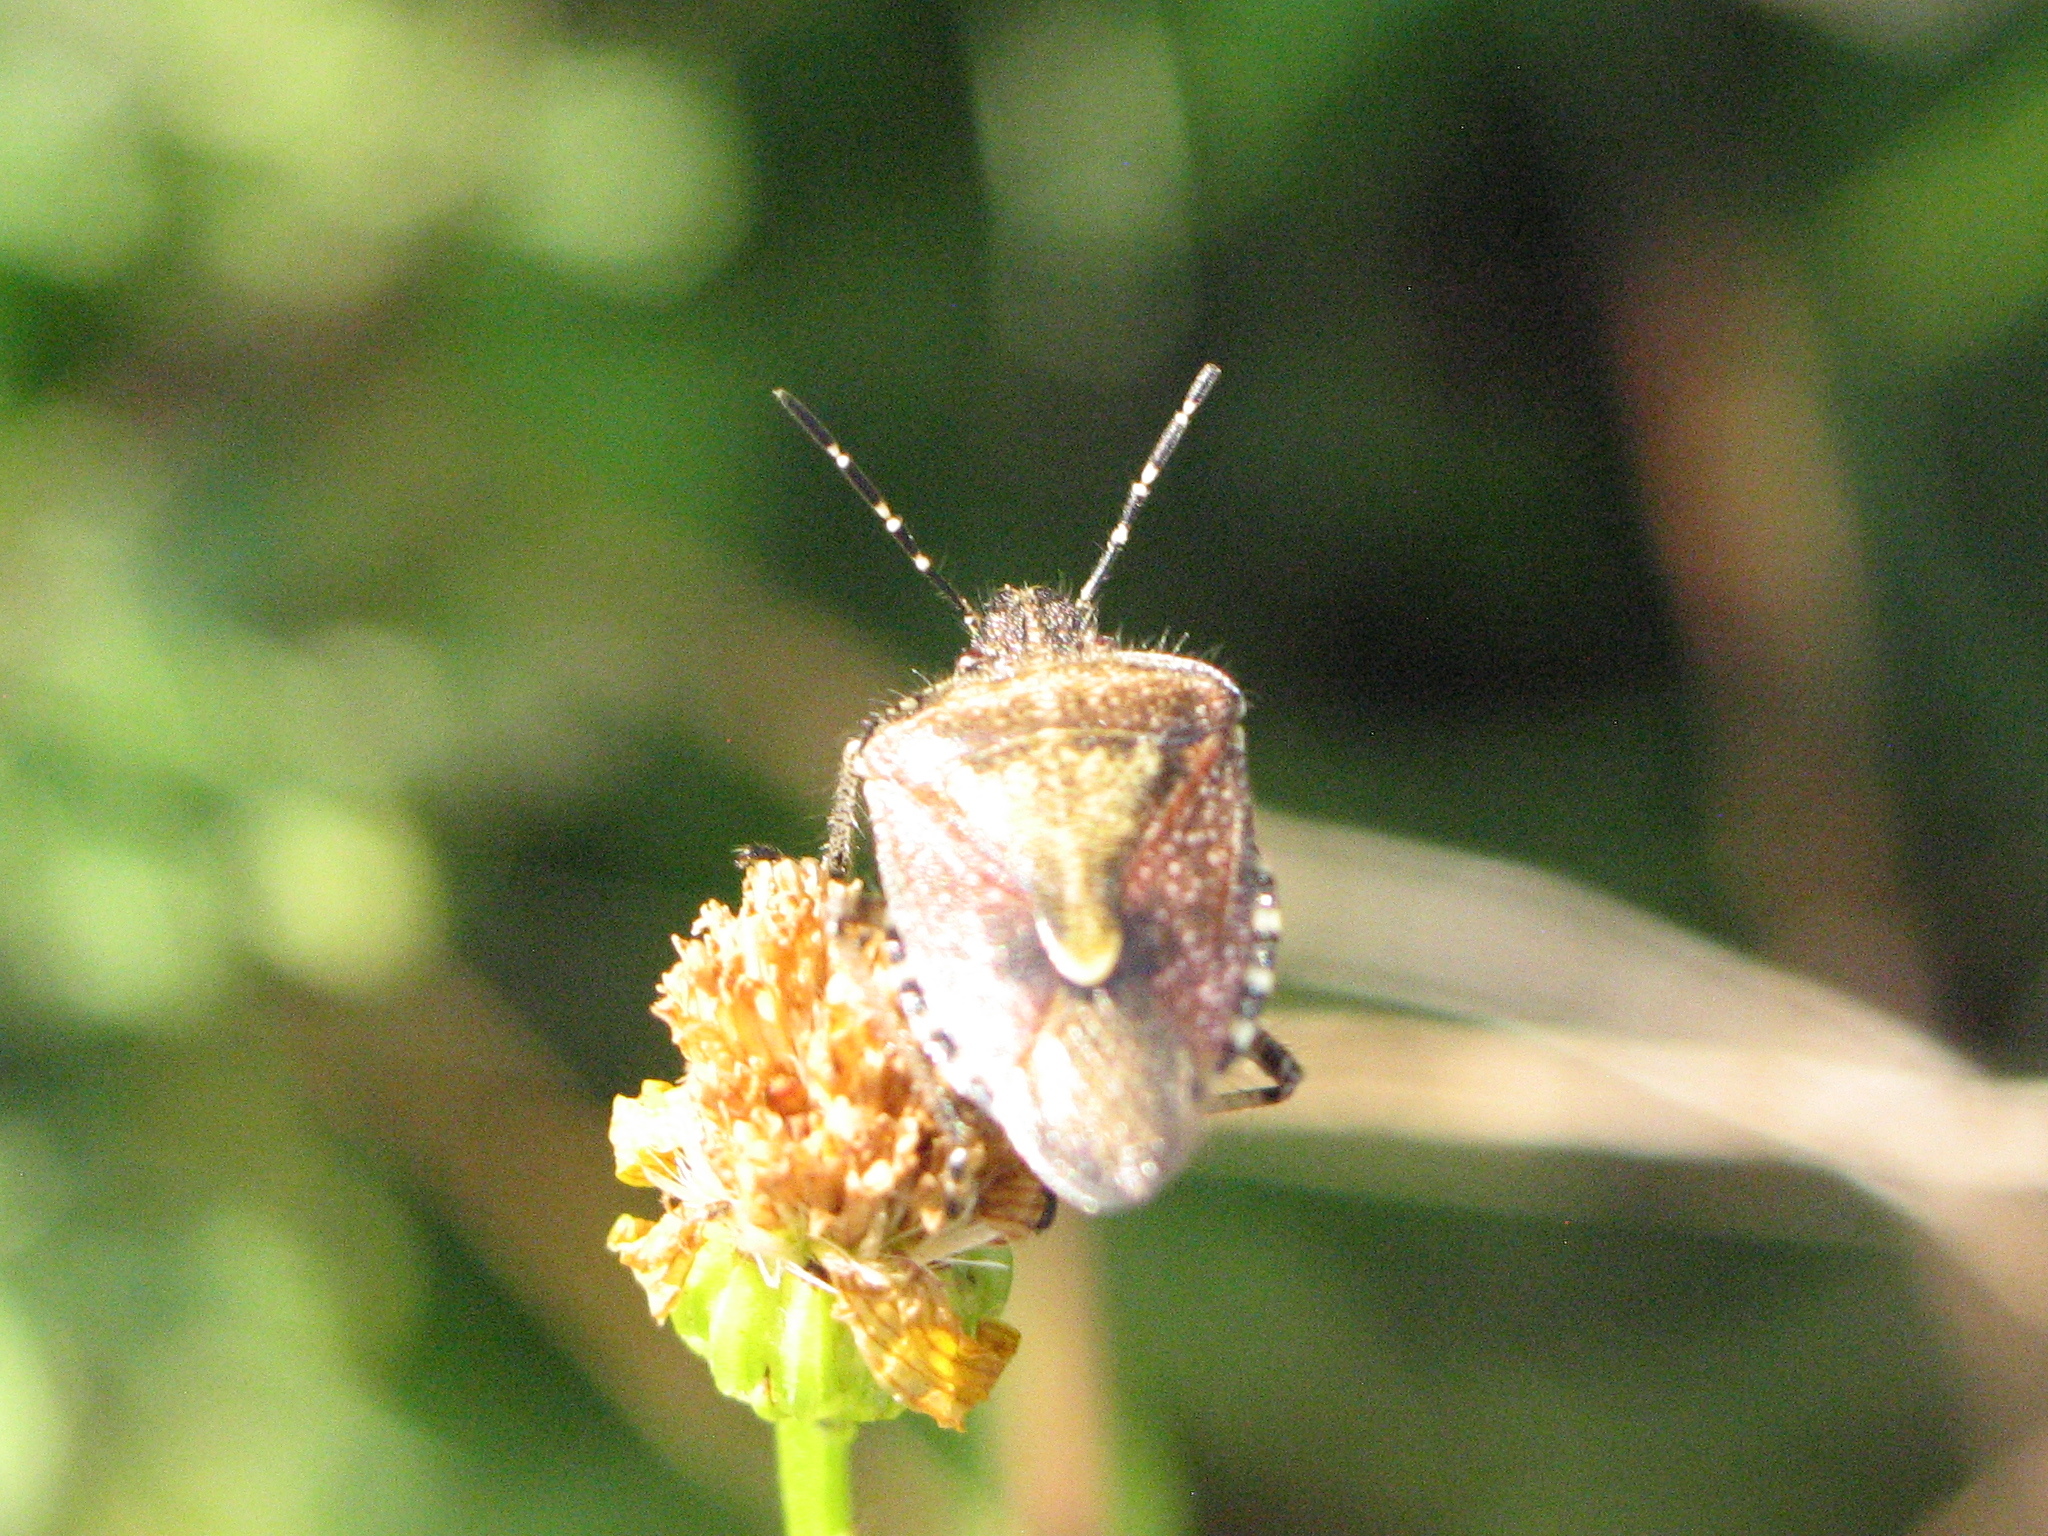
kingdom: Animalia
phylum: Arthropoda
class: Insecta
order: Hemiptera
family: Pentatomidae
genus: Dolycoris
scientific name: Dolycoris baccarum
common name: Sloe bug
